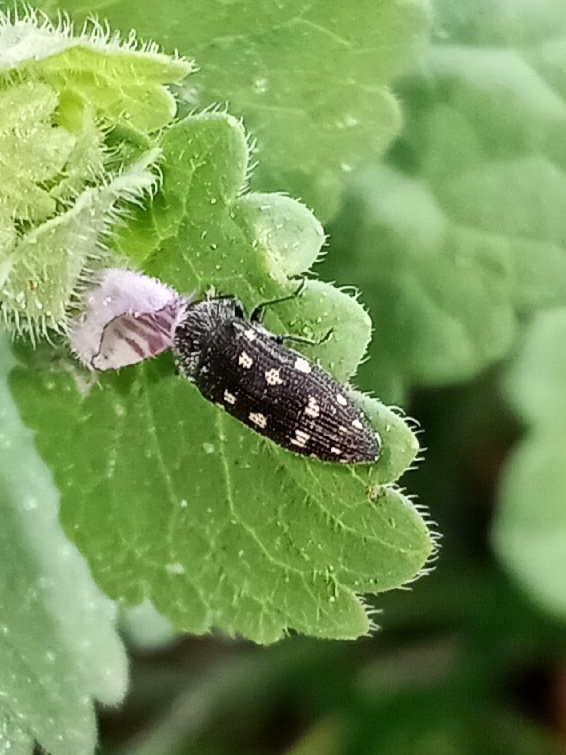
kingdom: Animalia
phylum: Arthropoda
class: Insecta
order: Coleoptera
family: Buprestidae
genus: Acmaeodera
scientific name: Acmaeodera tubulus
